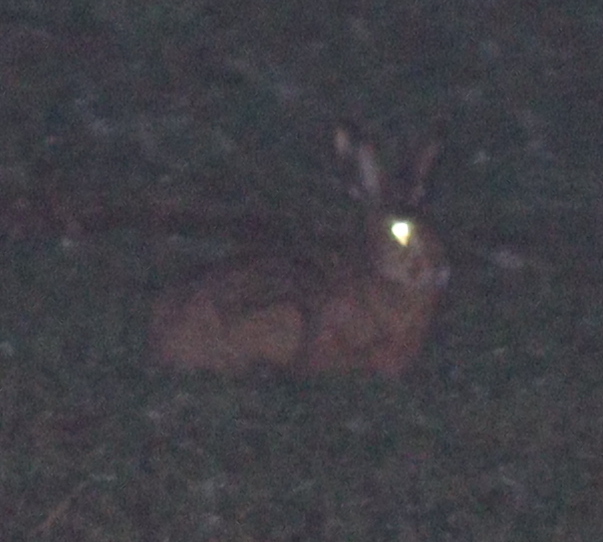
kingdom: Animalia
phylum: Chordata
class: Mammalia
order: Lagomorpha
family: Leporidae
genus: Lepus
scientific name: Lepus europaeus
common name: European hare
